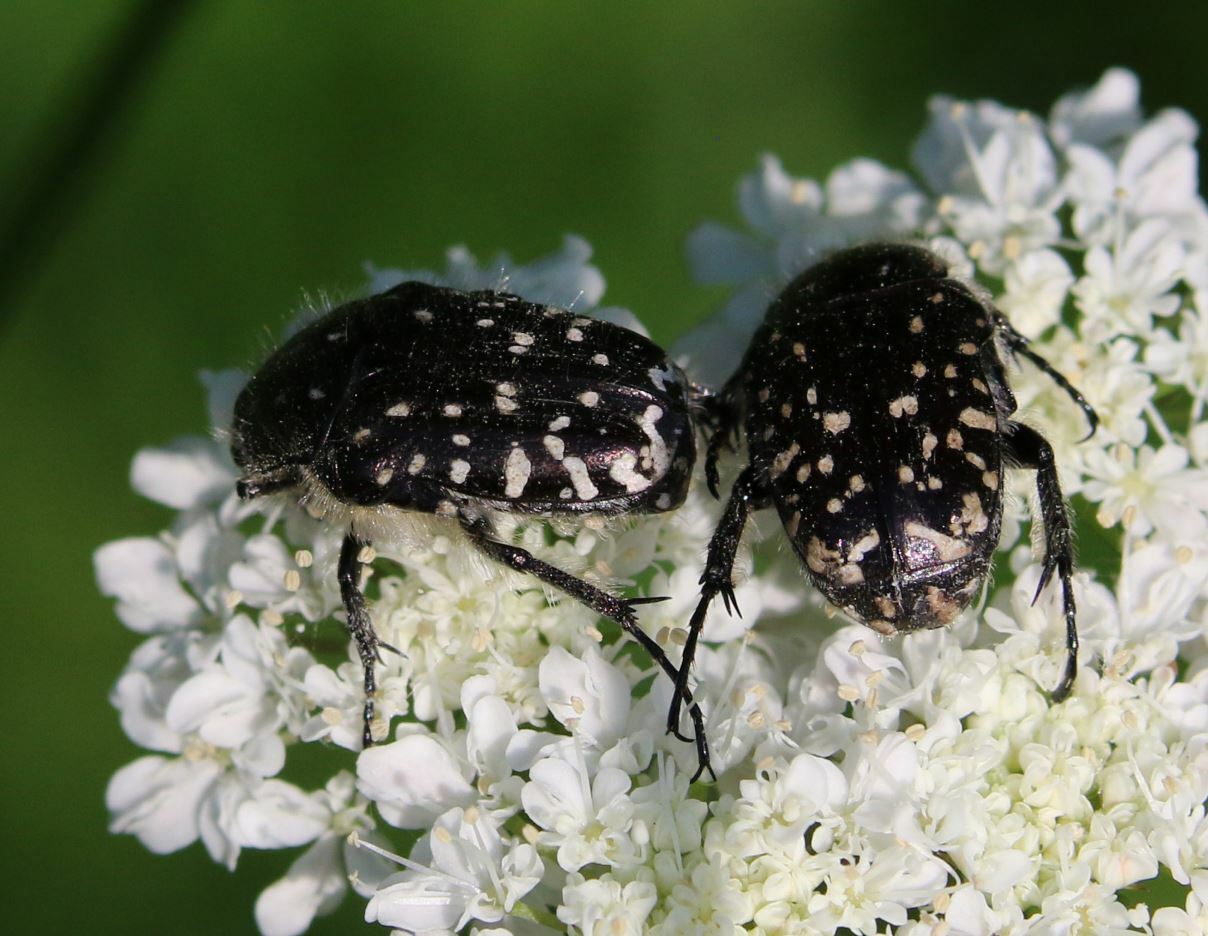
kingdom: Animalia
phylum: Arthropoda
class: Insecta
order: Coleoptera
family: Scarabaeidae
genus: Oxythyrea
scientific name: Oxythyrea funesta
